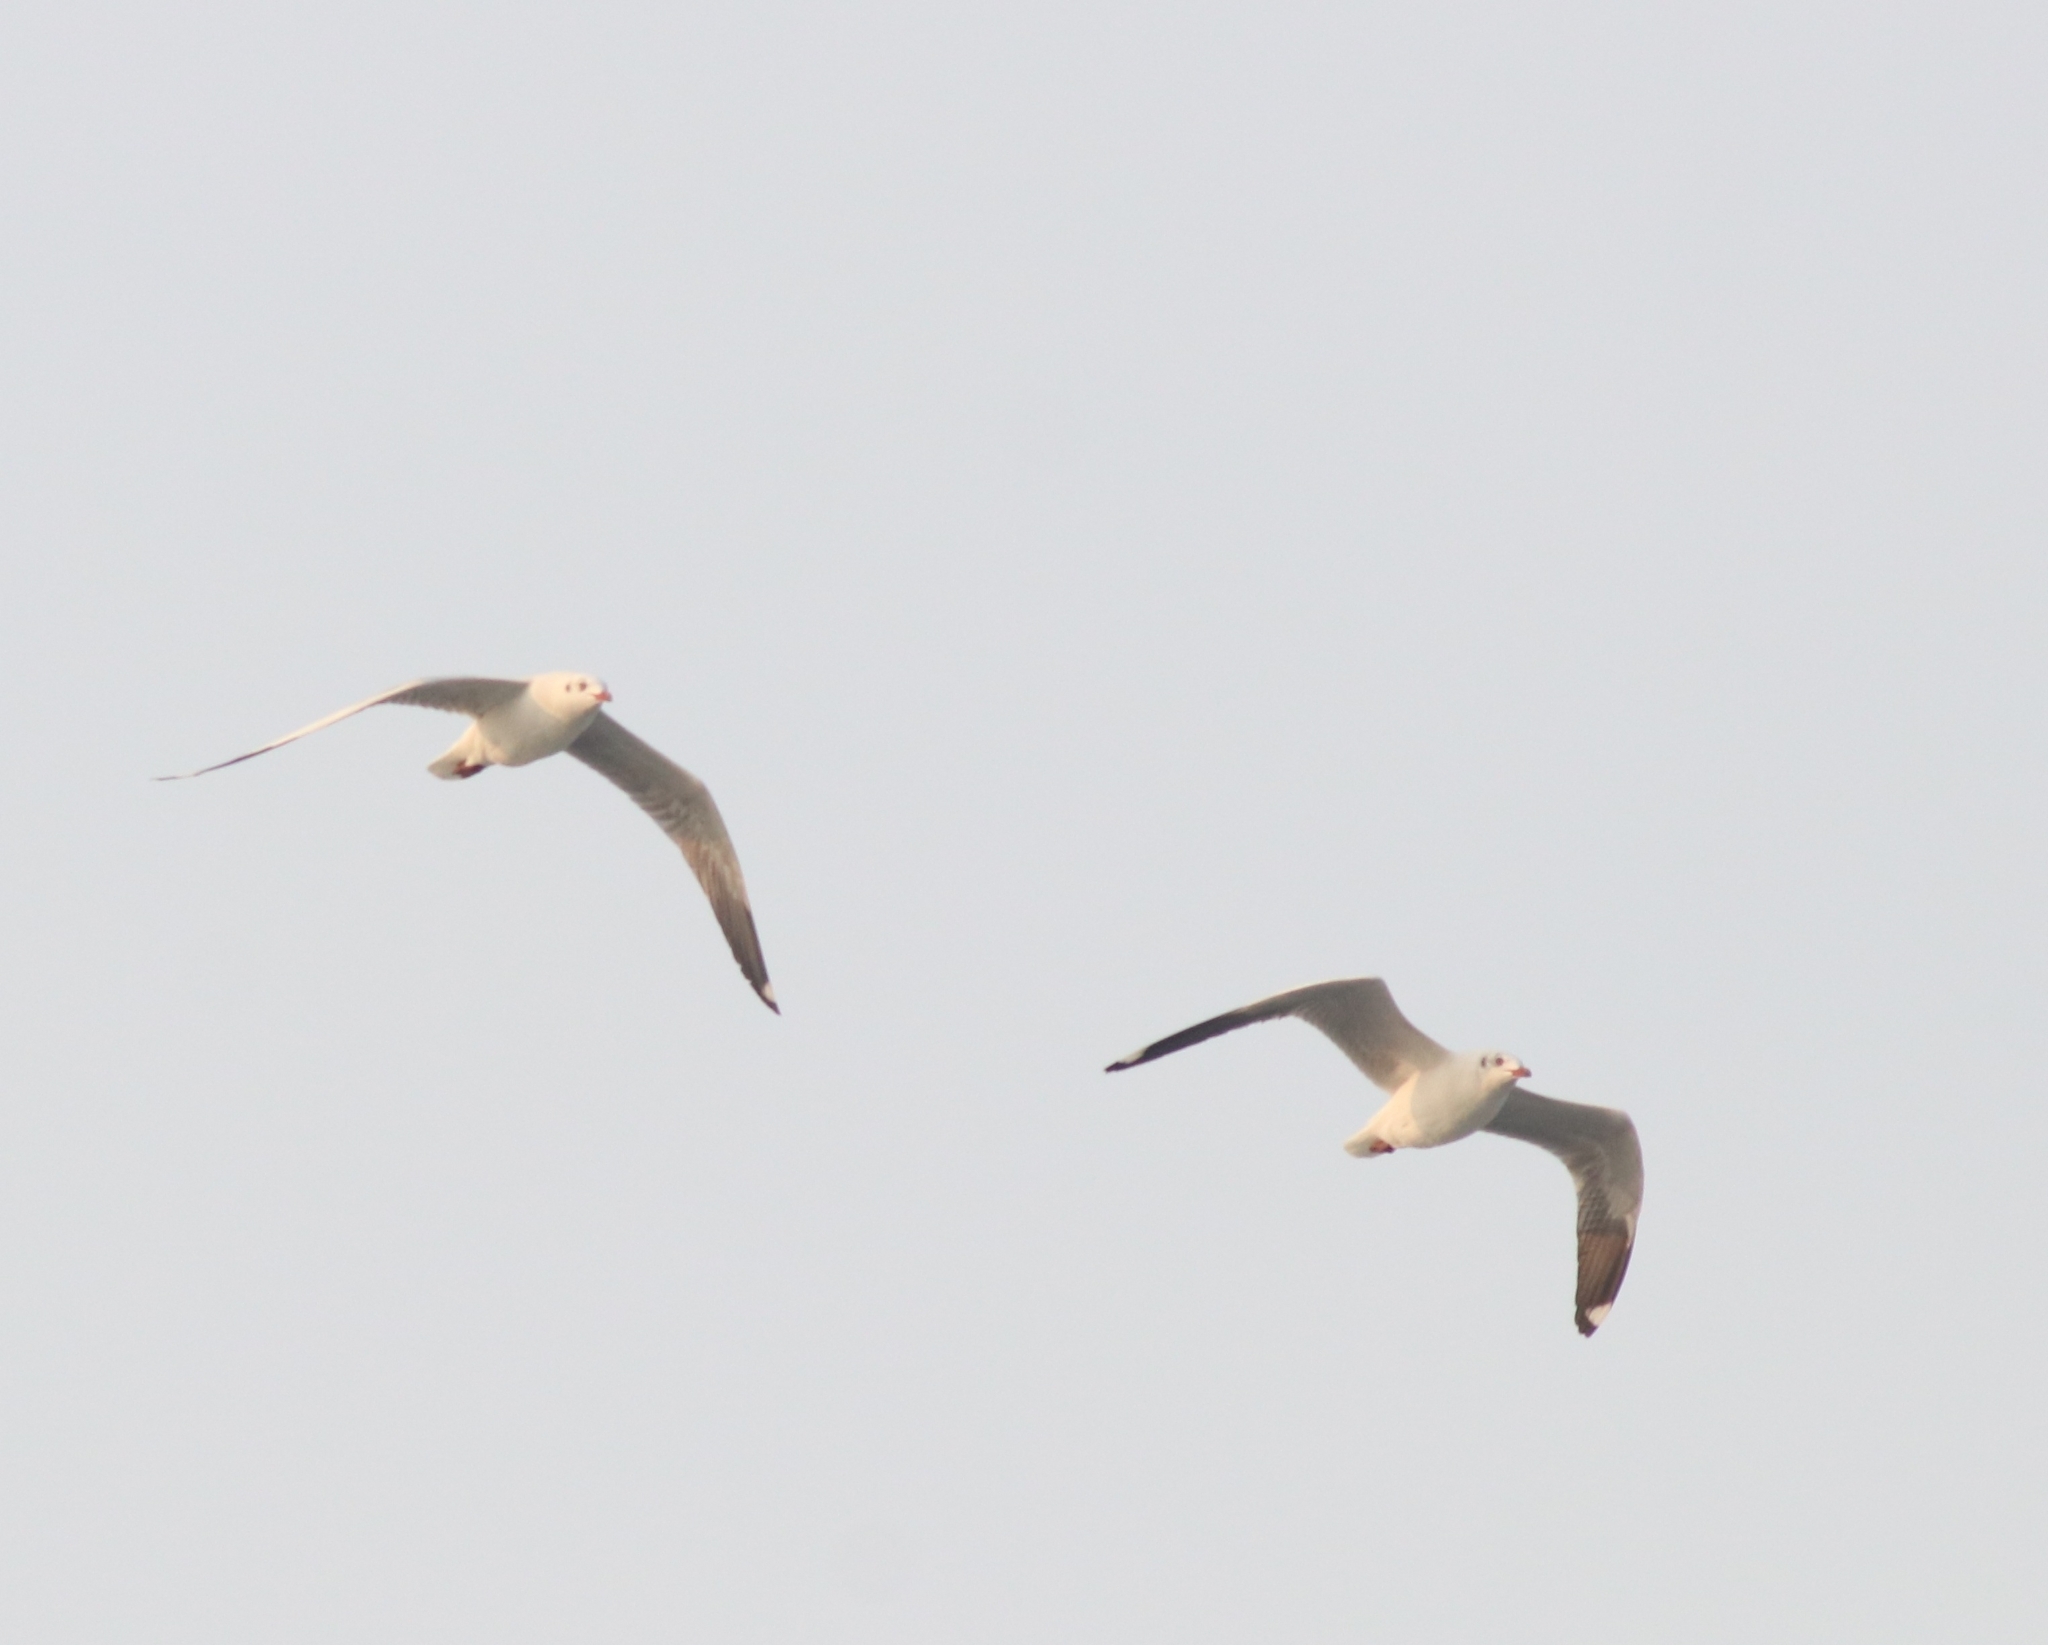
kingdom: Animalia
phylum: Chordata
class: Aves
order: Charadriiformes
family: Laridae
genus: Chroicocephalus
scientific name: Chroicocephalus brunnicephalus
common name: Brown-headed gull
